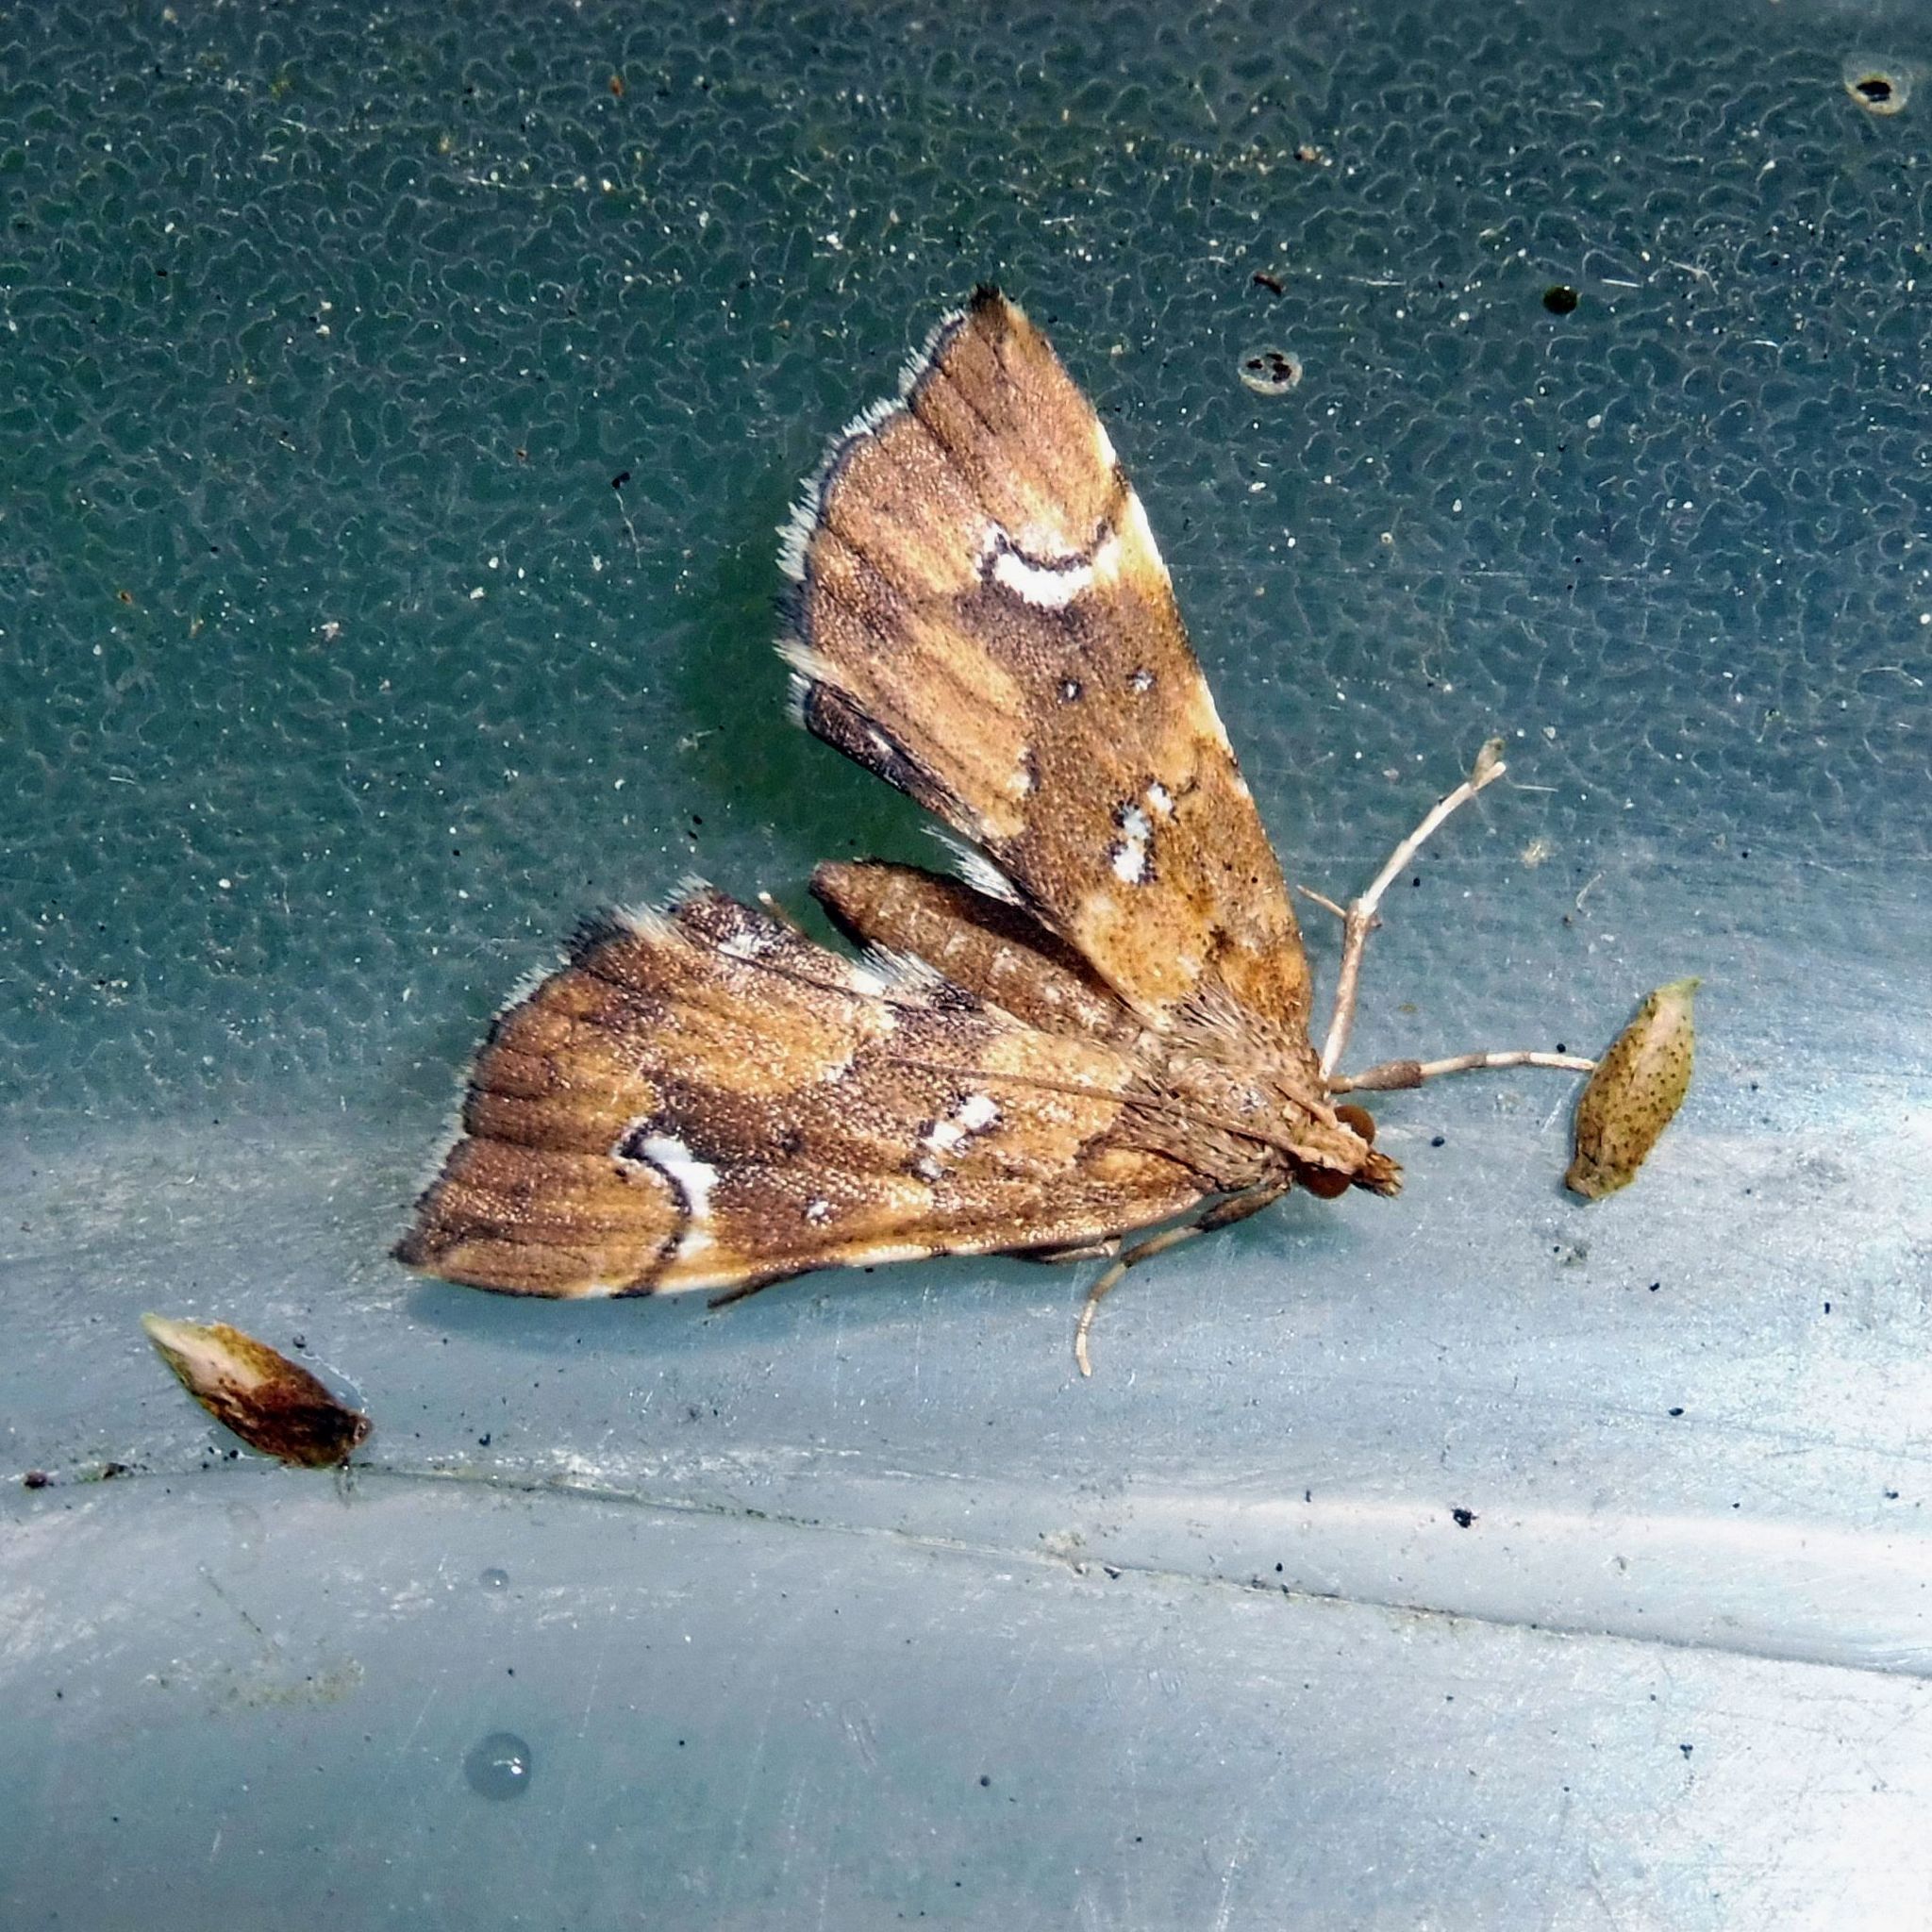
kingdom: Animalia
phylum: Arthropoda
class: Insecta
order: Lepidoptera
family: Pyralidae
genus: Musotima
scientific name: Musotima nitidalis
